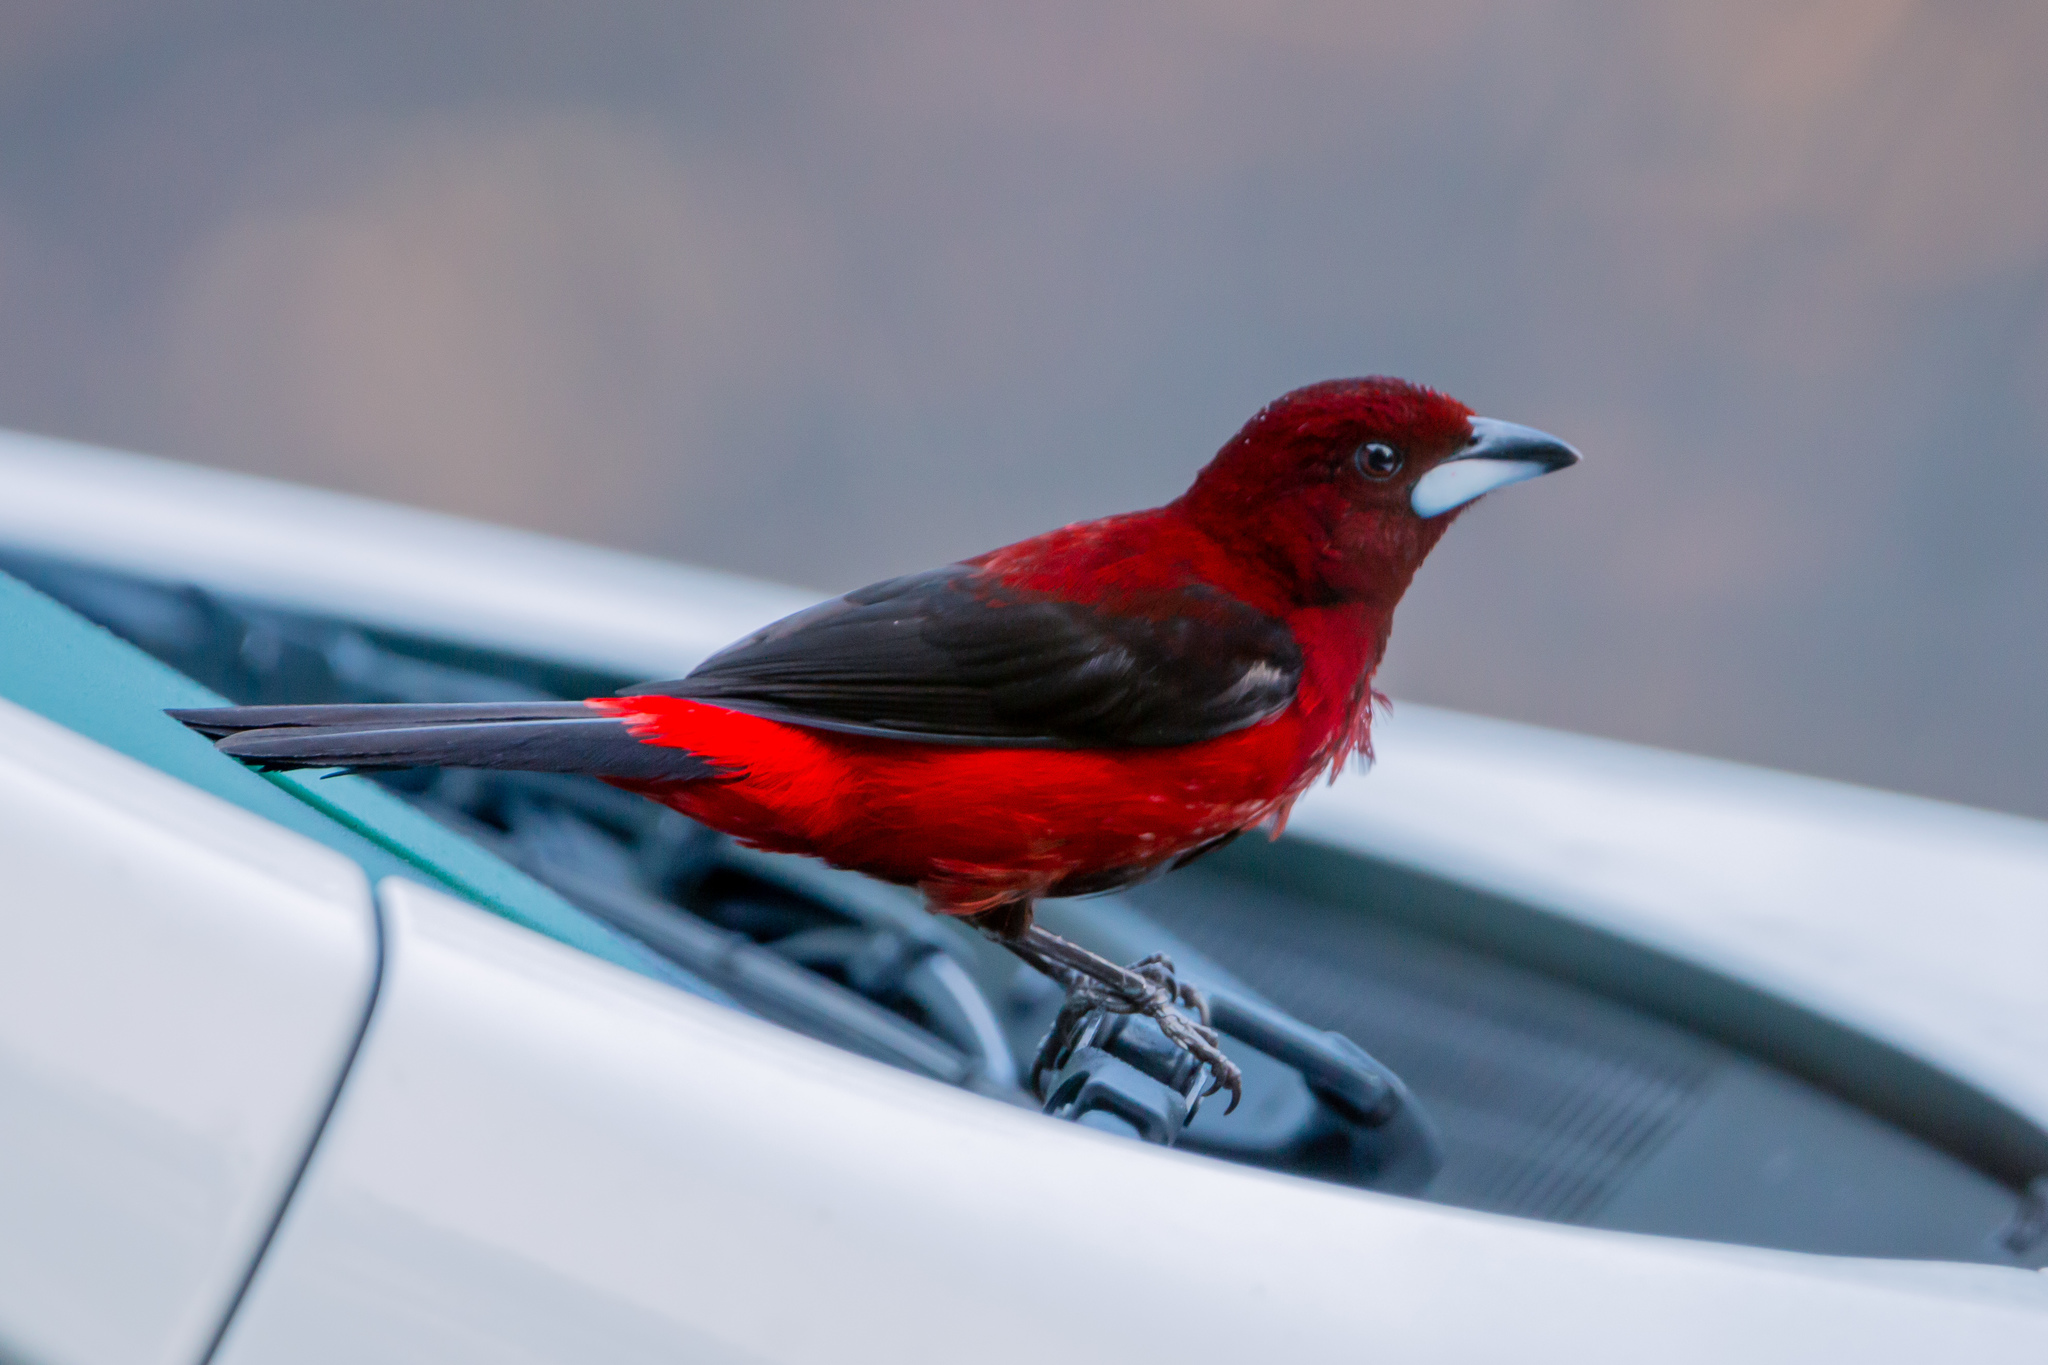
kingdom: Animalia
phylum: Chordata
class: Aves
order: Passeriformes
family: Thraupidae
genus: Ramphocelus
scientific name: Ramphocelus dimidiatus
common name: Crimson-backed tanager
